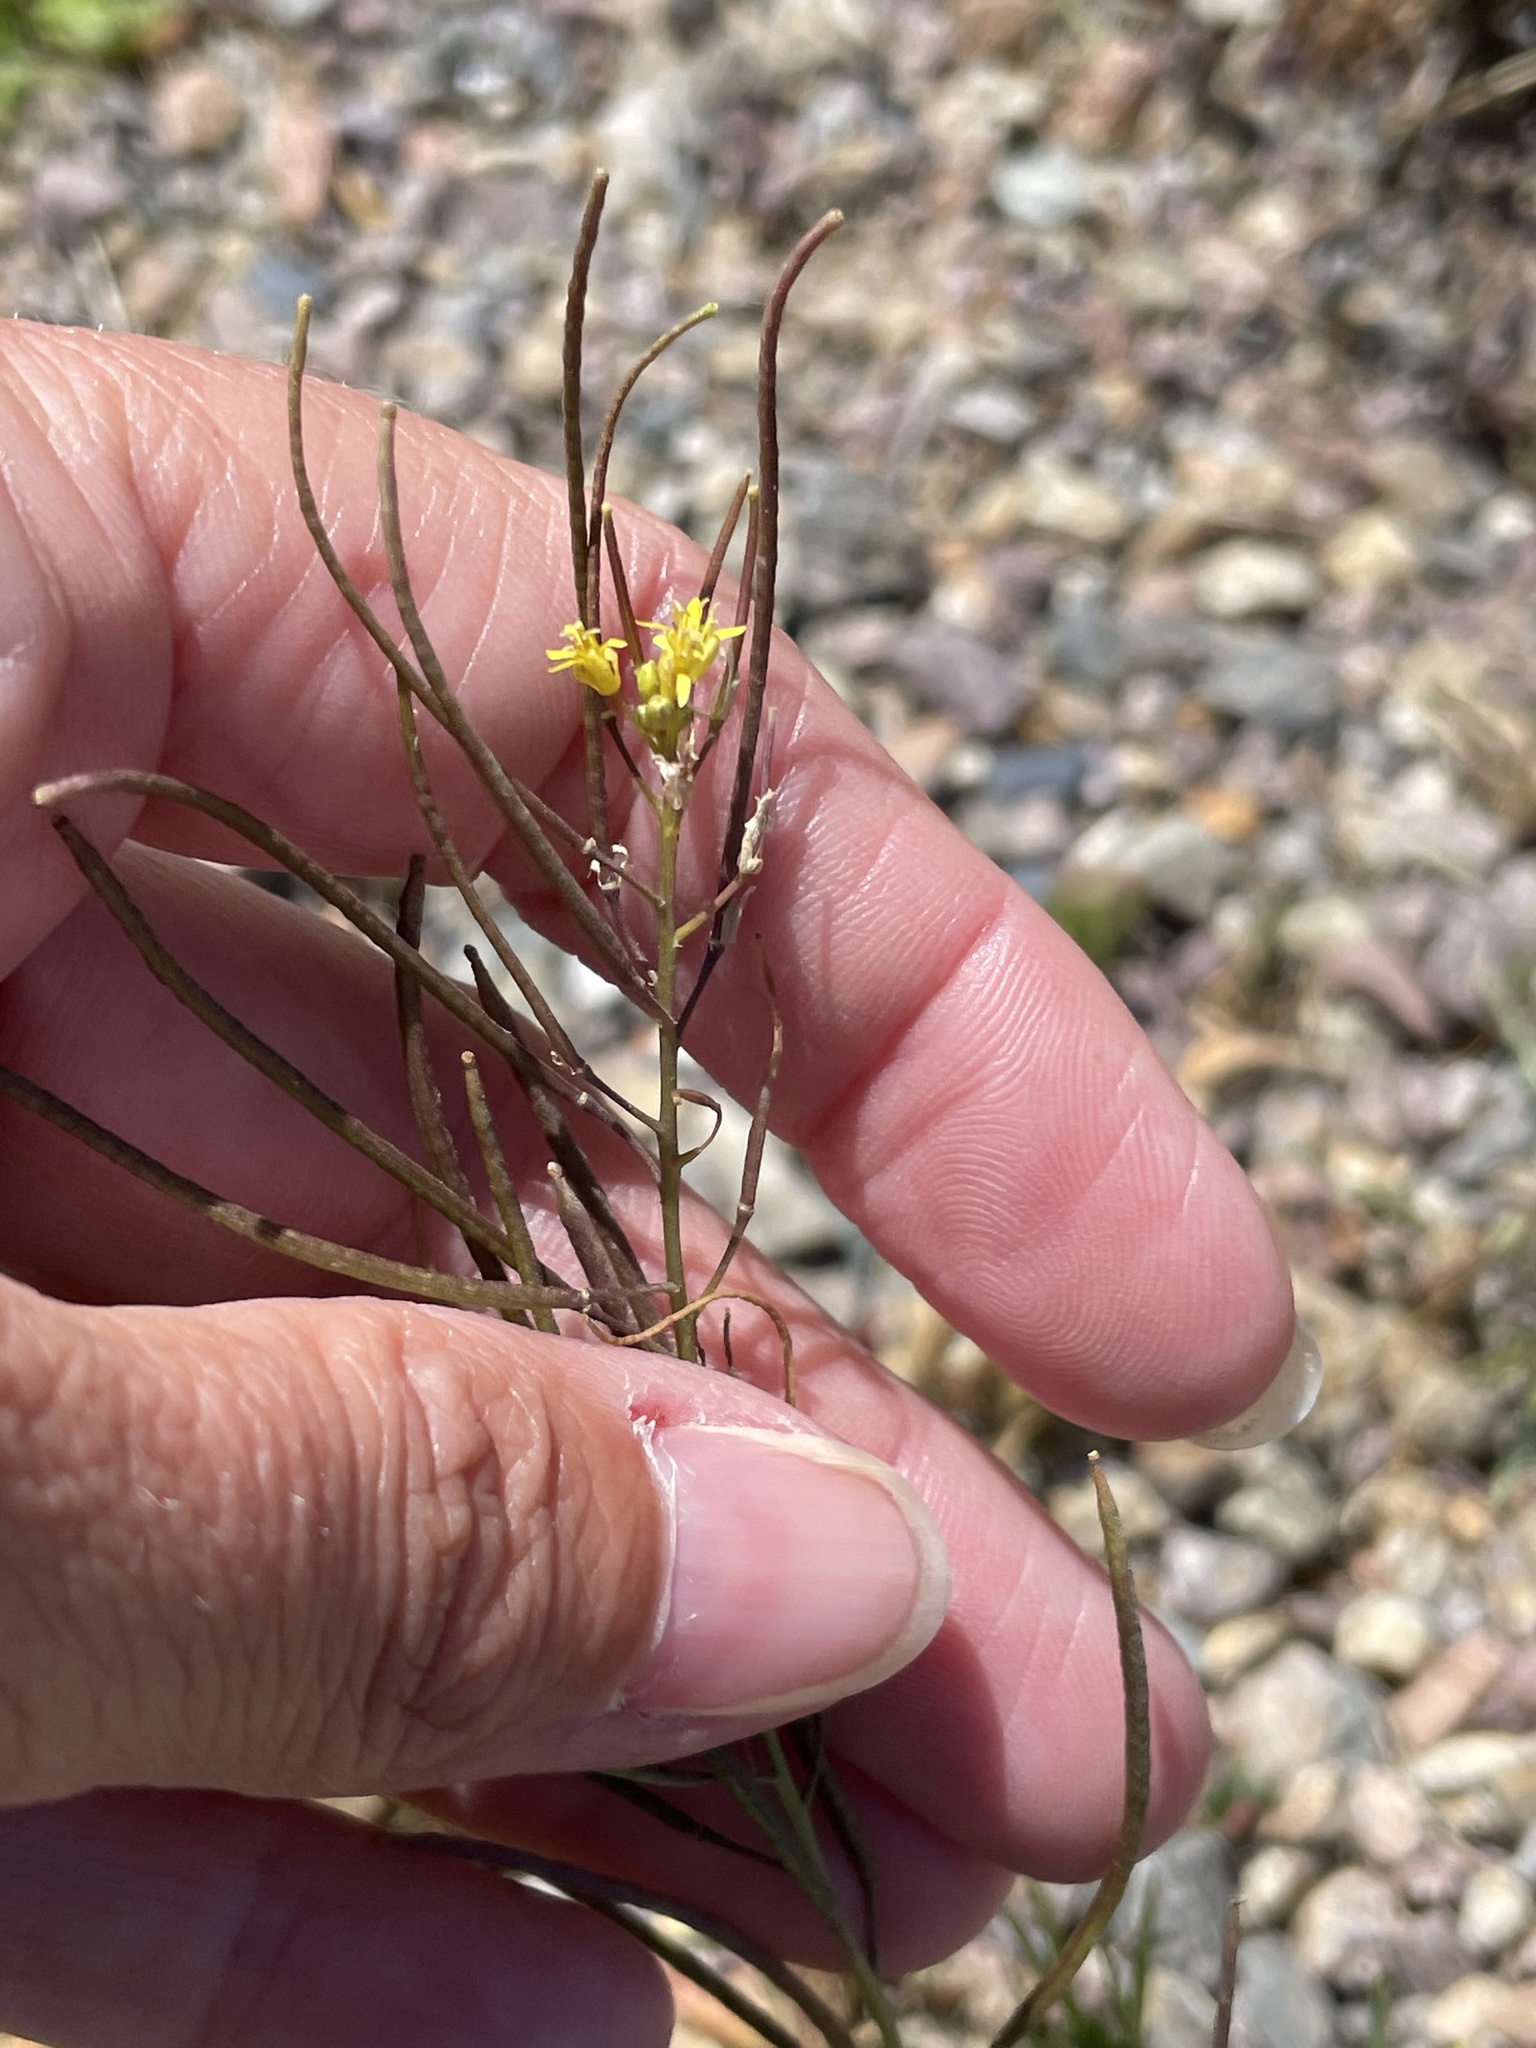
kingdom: Plantae
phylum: Tracheophyta
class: Magnoliopsida
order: Brassicales
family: Brassicaceae
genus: Sisymbrium
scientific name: Sisymbrium irio
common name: London rocket
